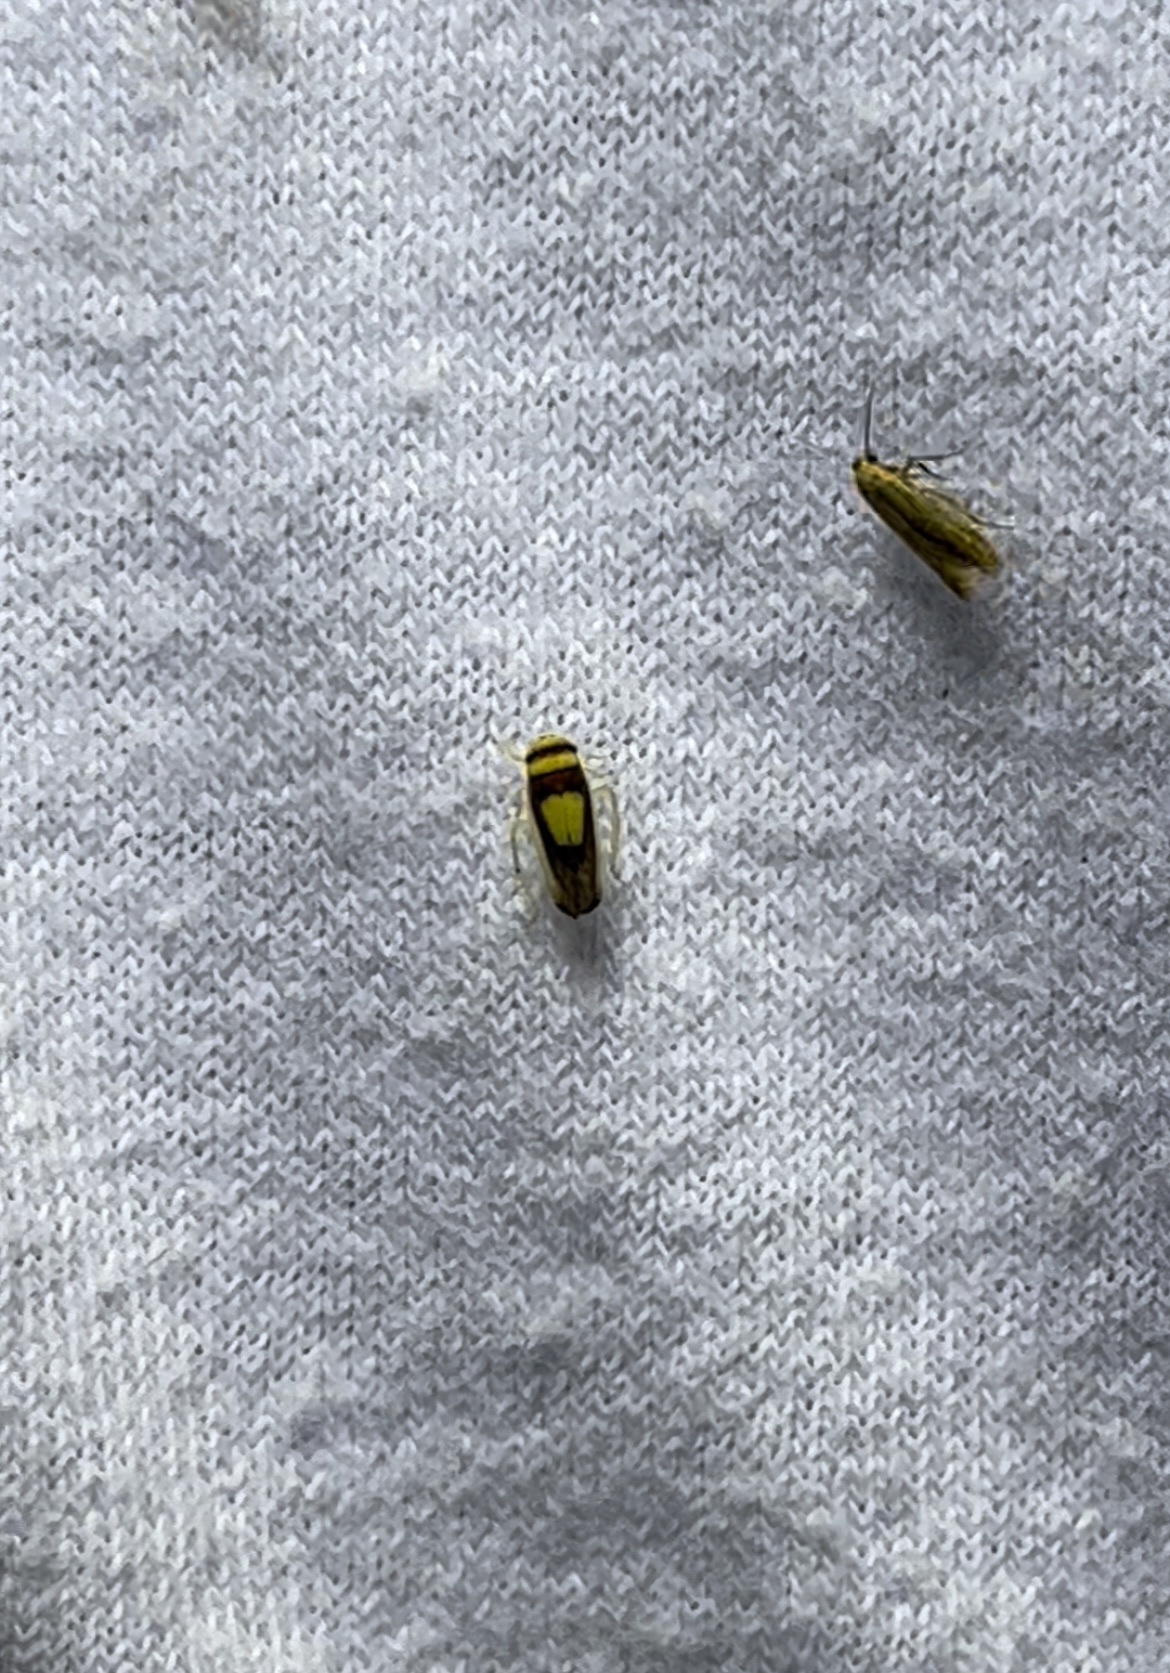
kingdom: Animalia
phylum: Arthropoda
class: Insecta
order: Hemiptera
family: Cicadellidae
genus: Colladonus
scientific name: Colladonus clitellarius
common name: The saddleback leafhopper
